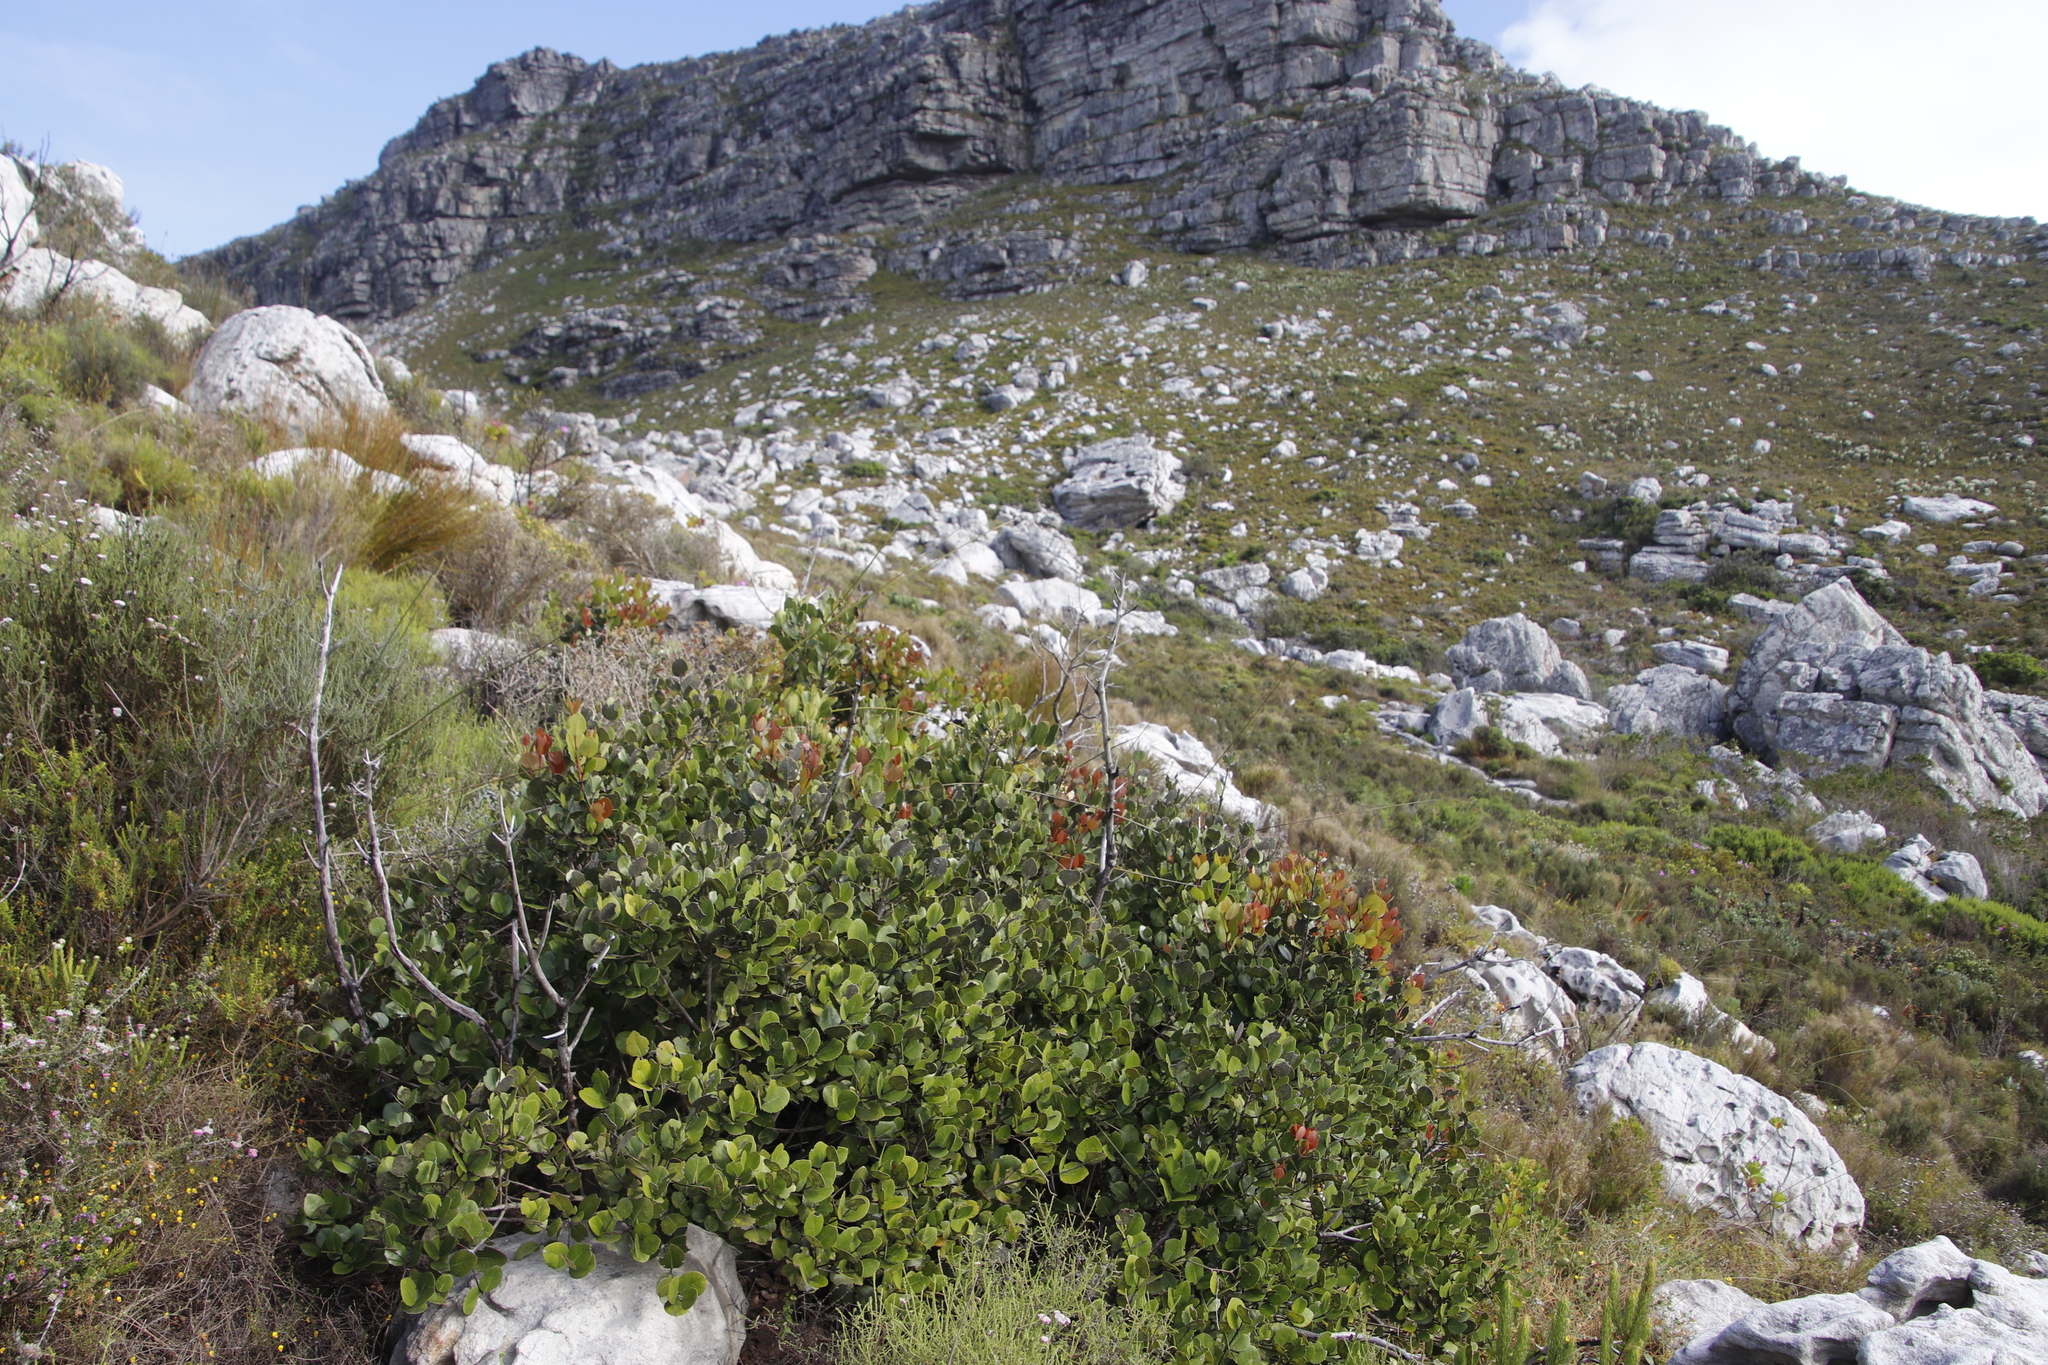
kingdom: Plantae
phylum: Tracheophyta
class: Magnoliopsida
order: Celastrales
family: Celastraceae
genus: Cassine
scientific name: Cassine peragua
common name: Cape saffron
